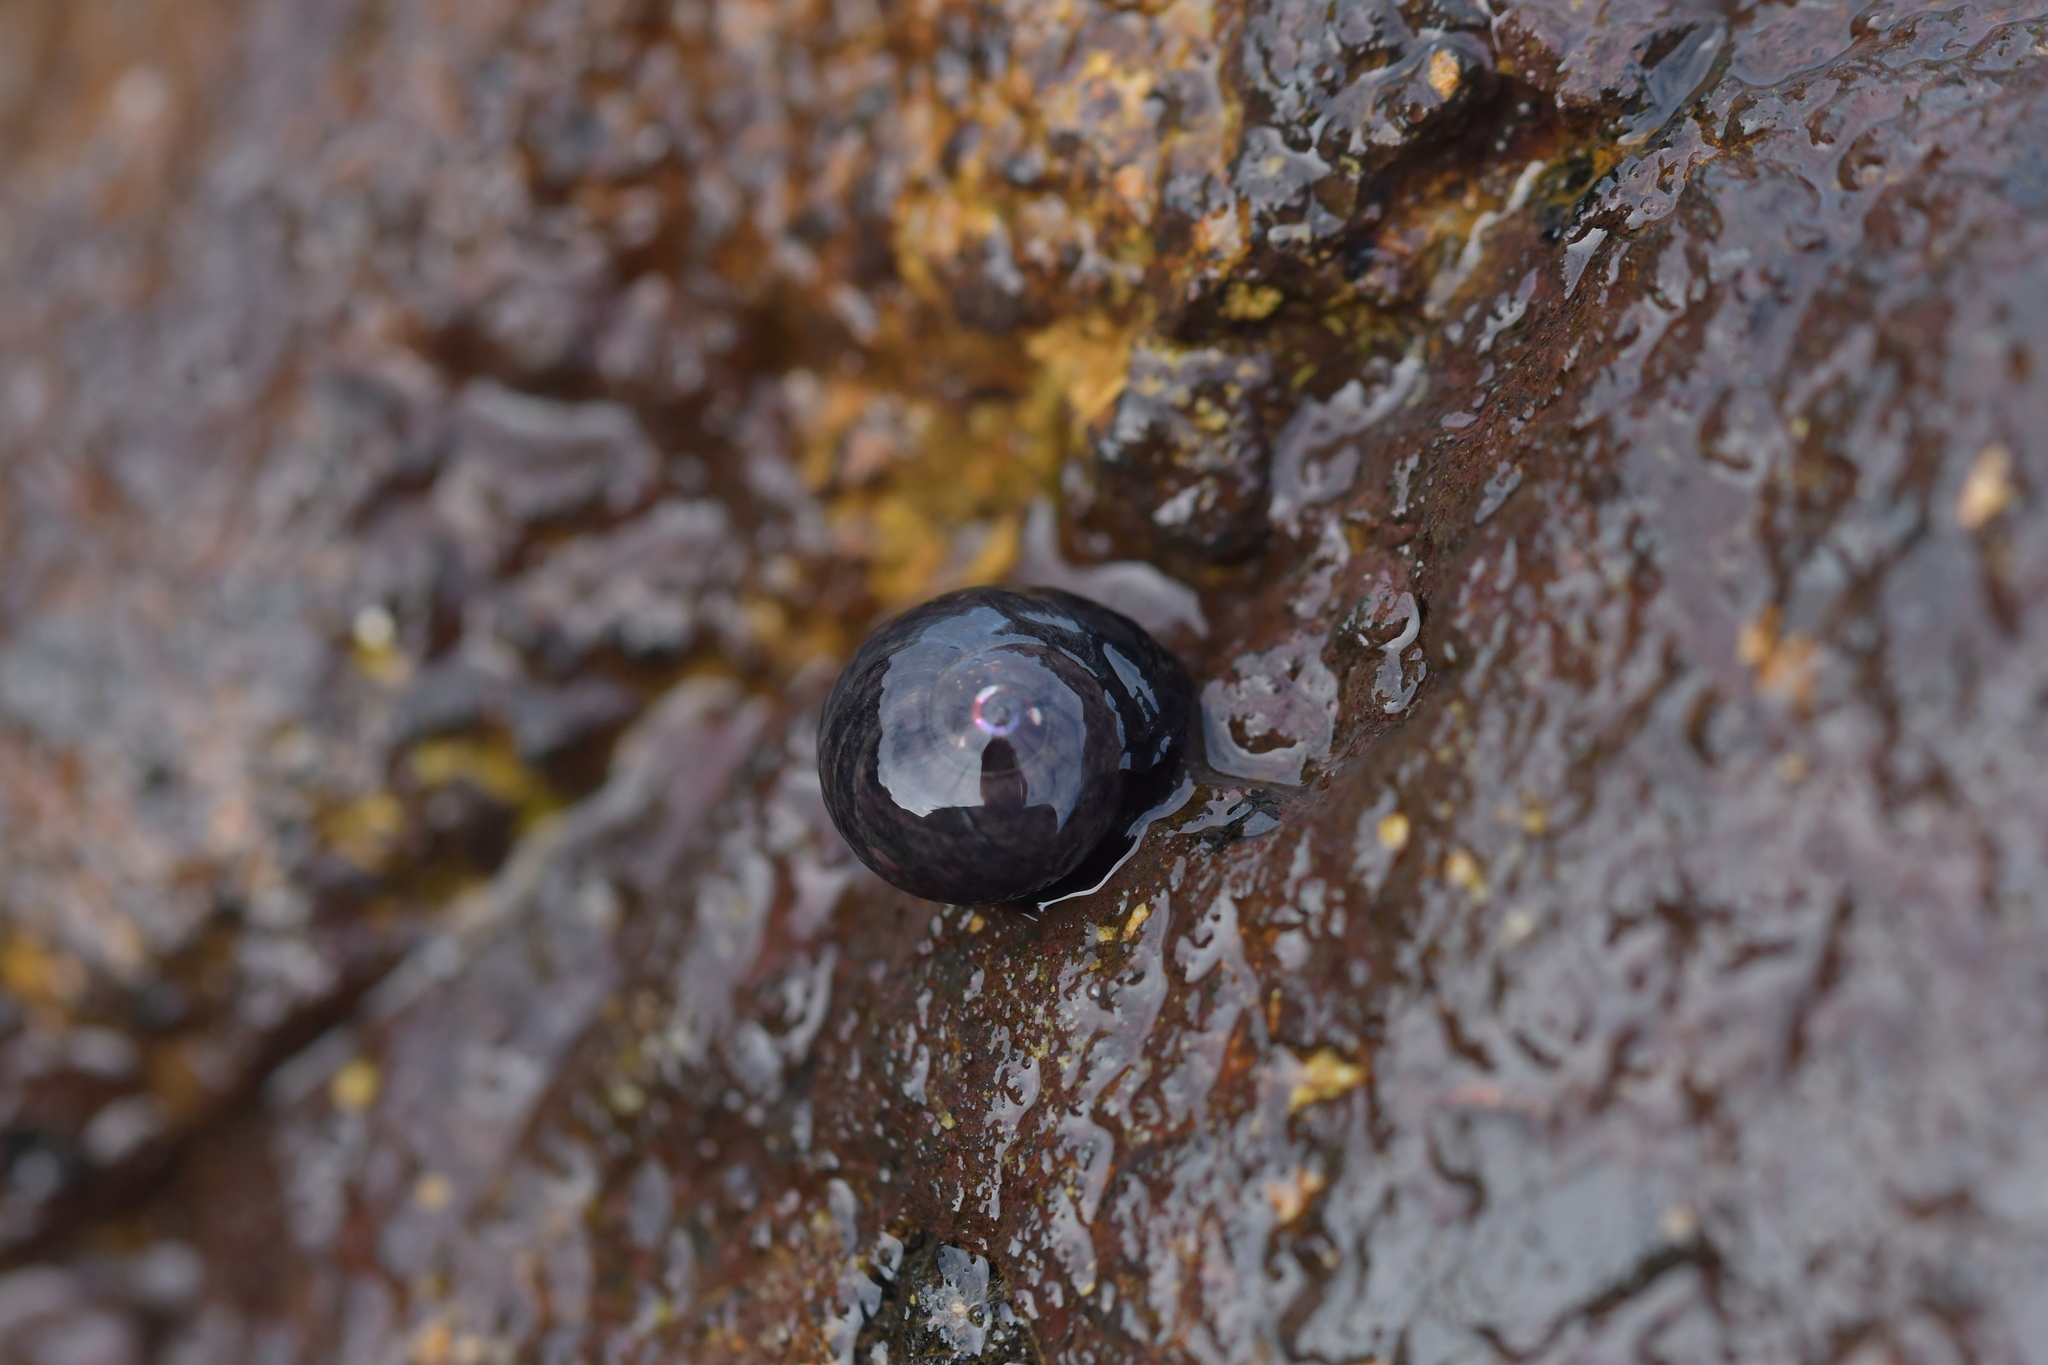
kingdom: Animalia
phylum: Mollusca
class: Gastropoda
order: Trochida
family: Trochidae
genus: Diloma
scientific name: Diloma nigerrimum
